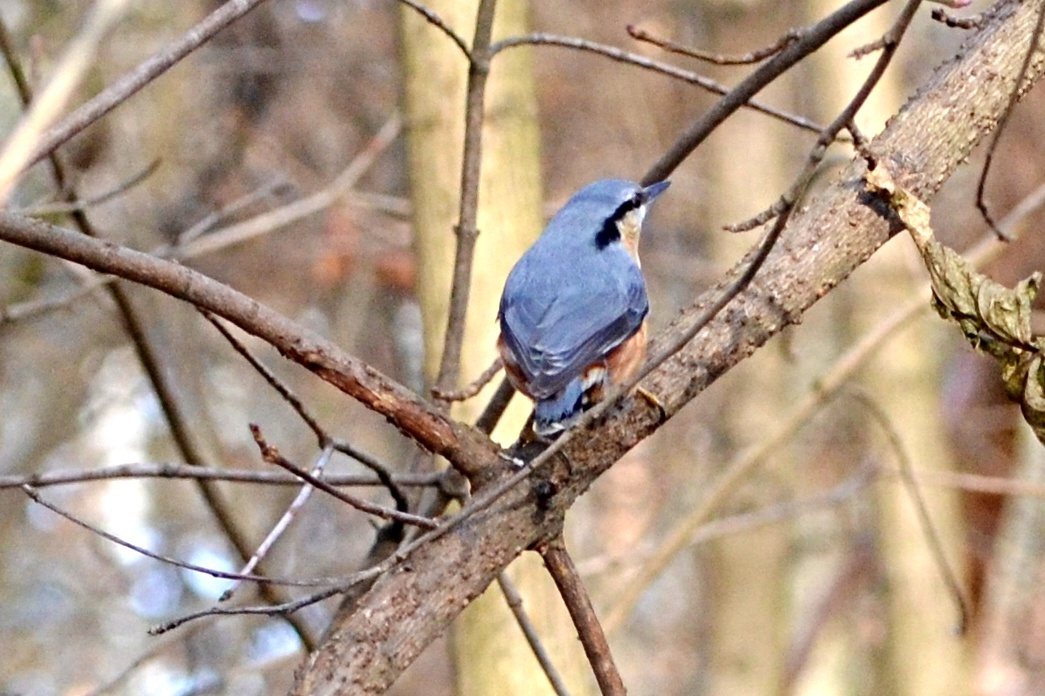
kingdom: Animalia
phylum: Chordata
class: Aves
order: Passeriformes
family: Sittidae
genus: Sitta
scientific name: Sitta europaea
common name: Eurasian nuthatch
